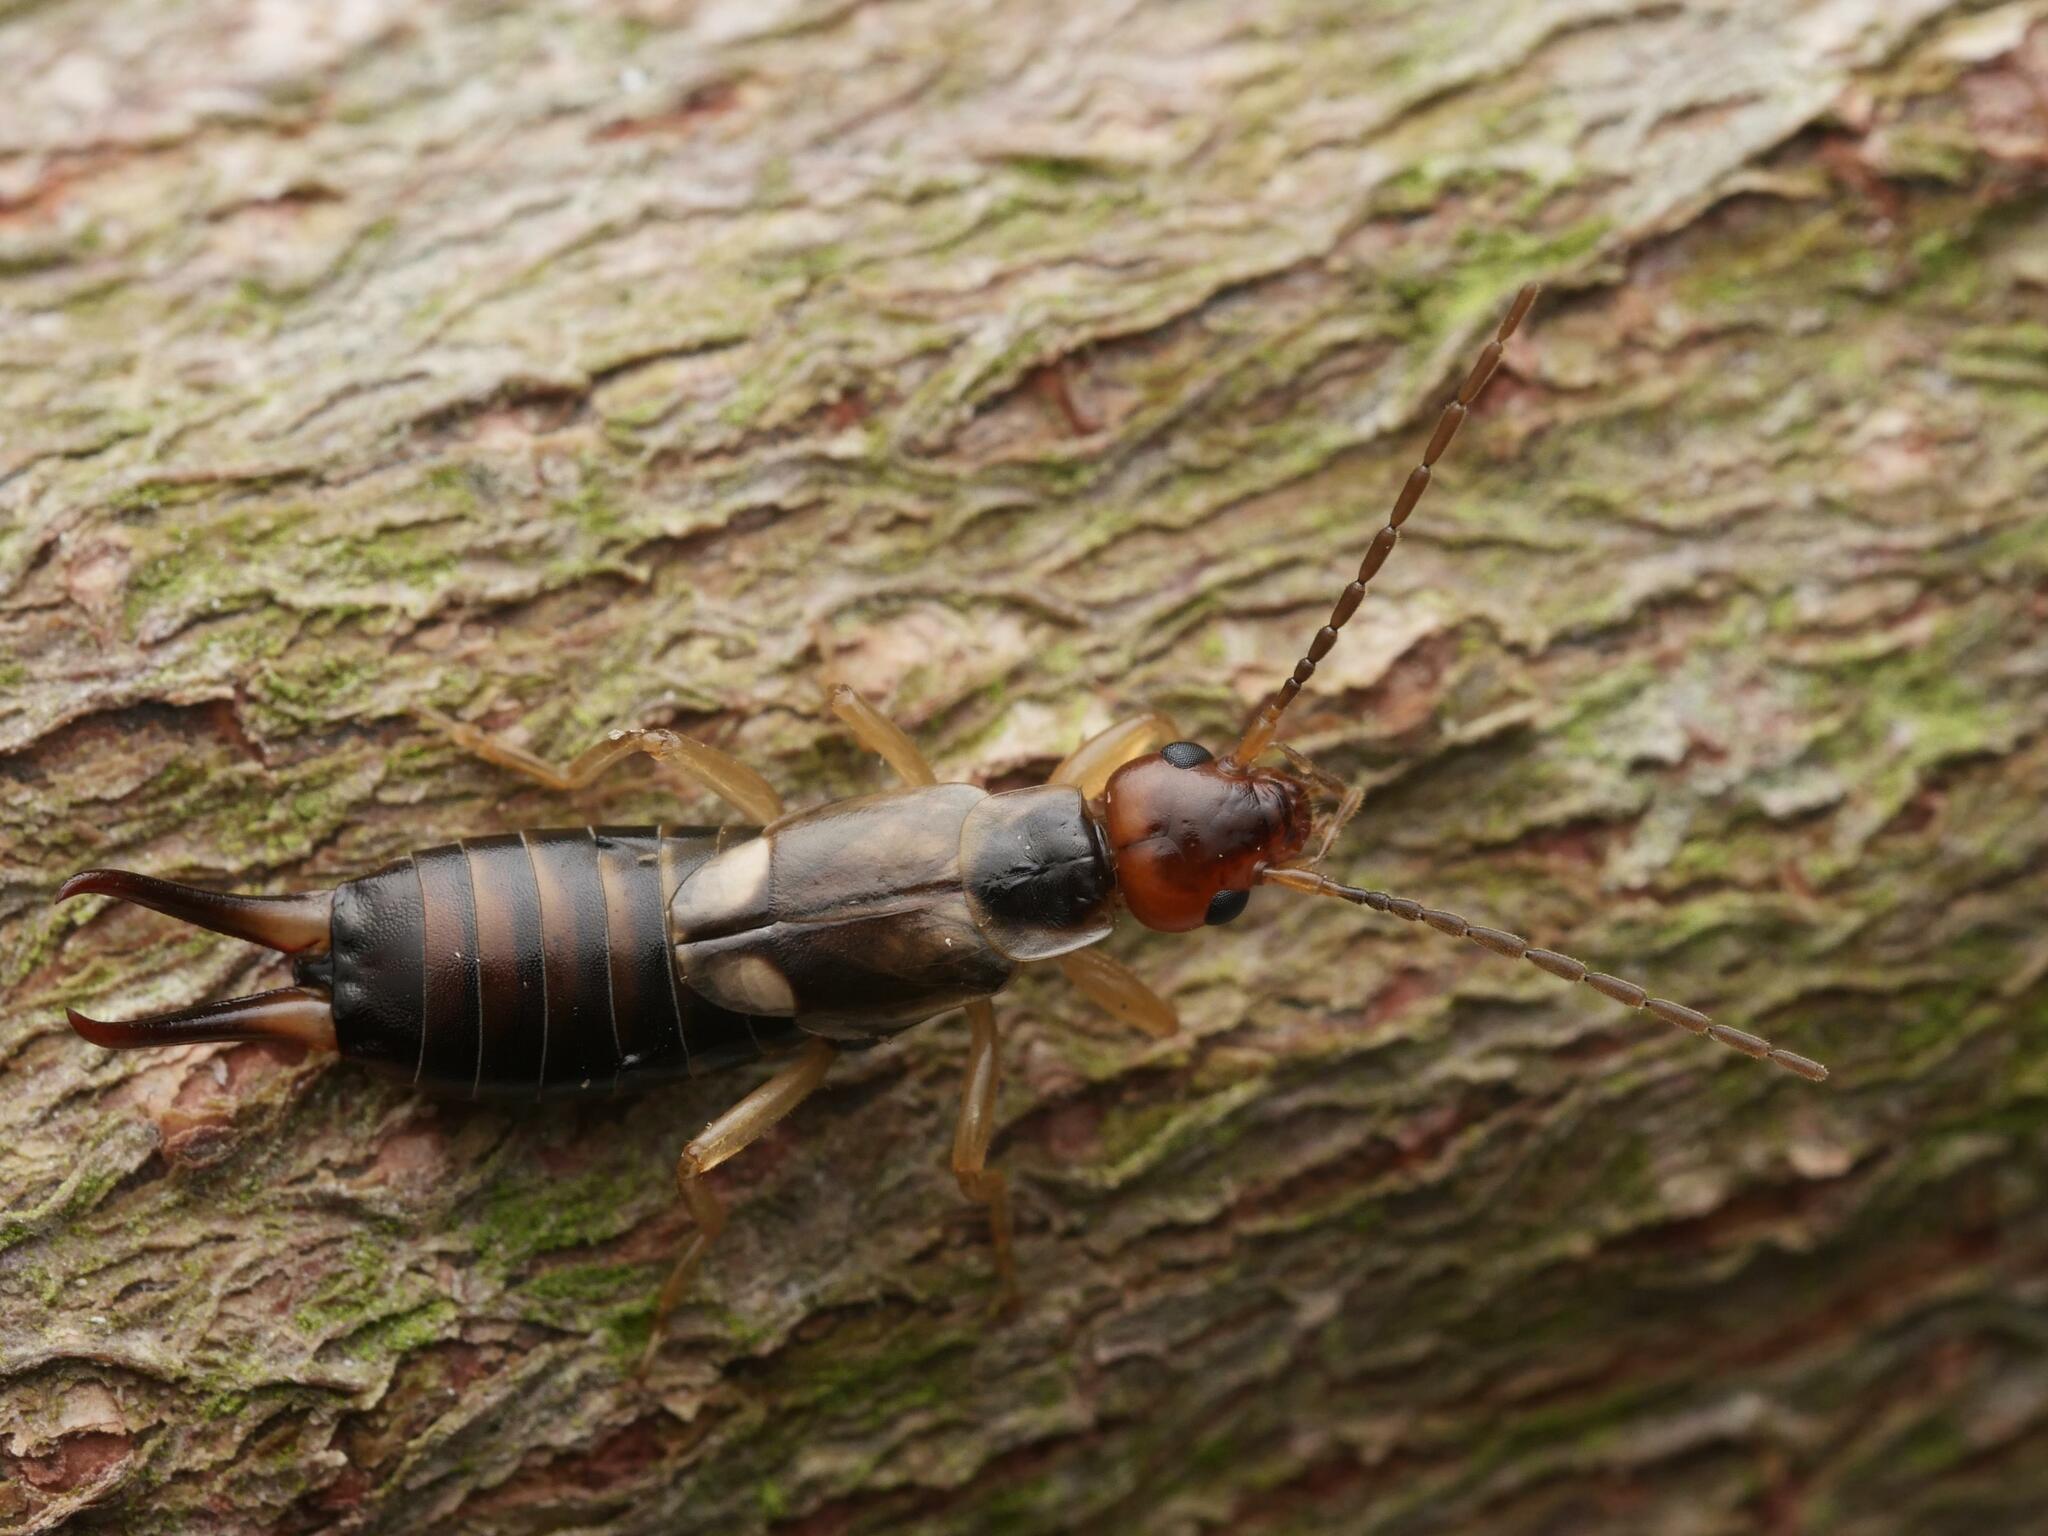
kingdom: Animalia
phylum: Arthropoda
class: Insecta
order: Dermaptera
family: Forficulidae
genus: Forficula
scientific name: Forficula
